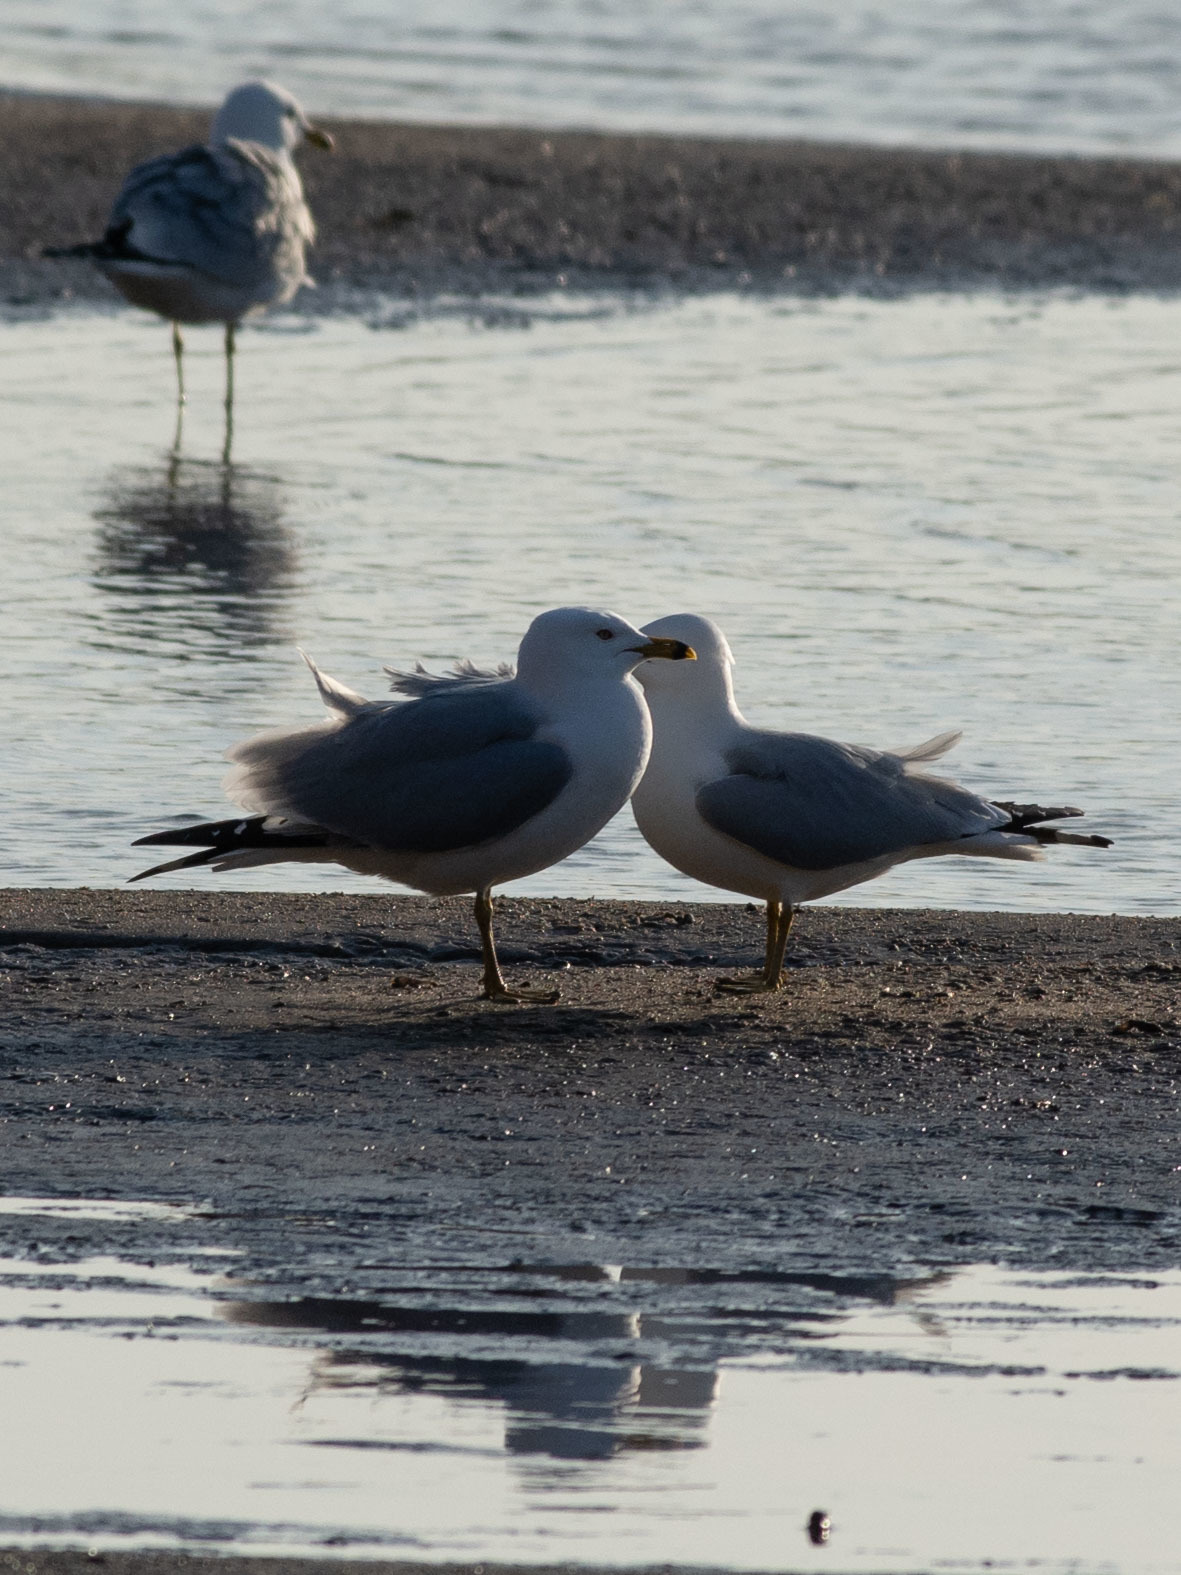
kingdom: Animalia
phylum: Chordata
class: Aves
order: Charadriiformes
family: Laridae
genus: Larus
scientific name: Larus delawarensis
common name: Ring-billed gull
